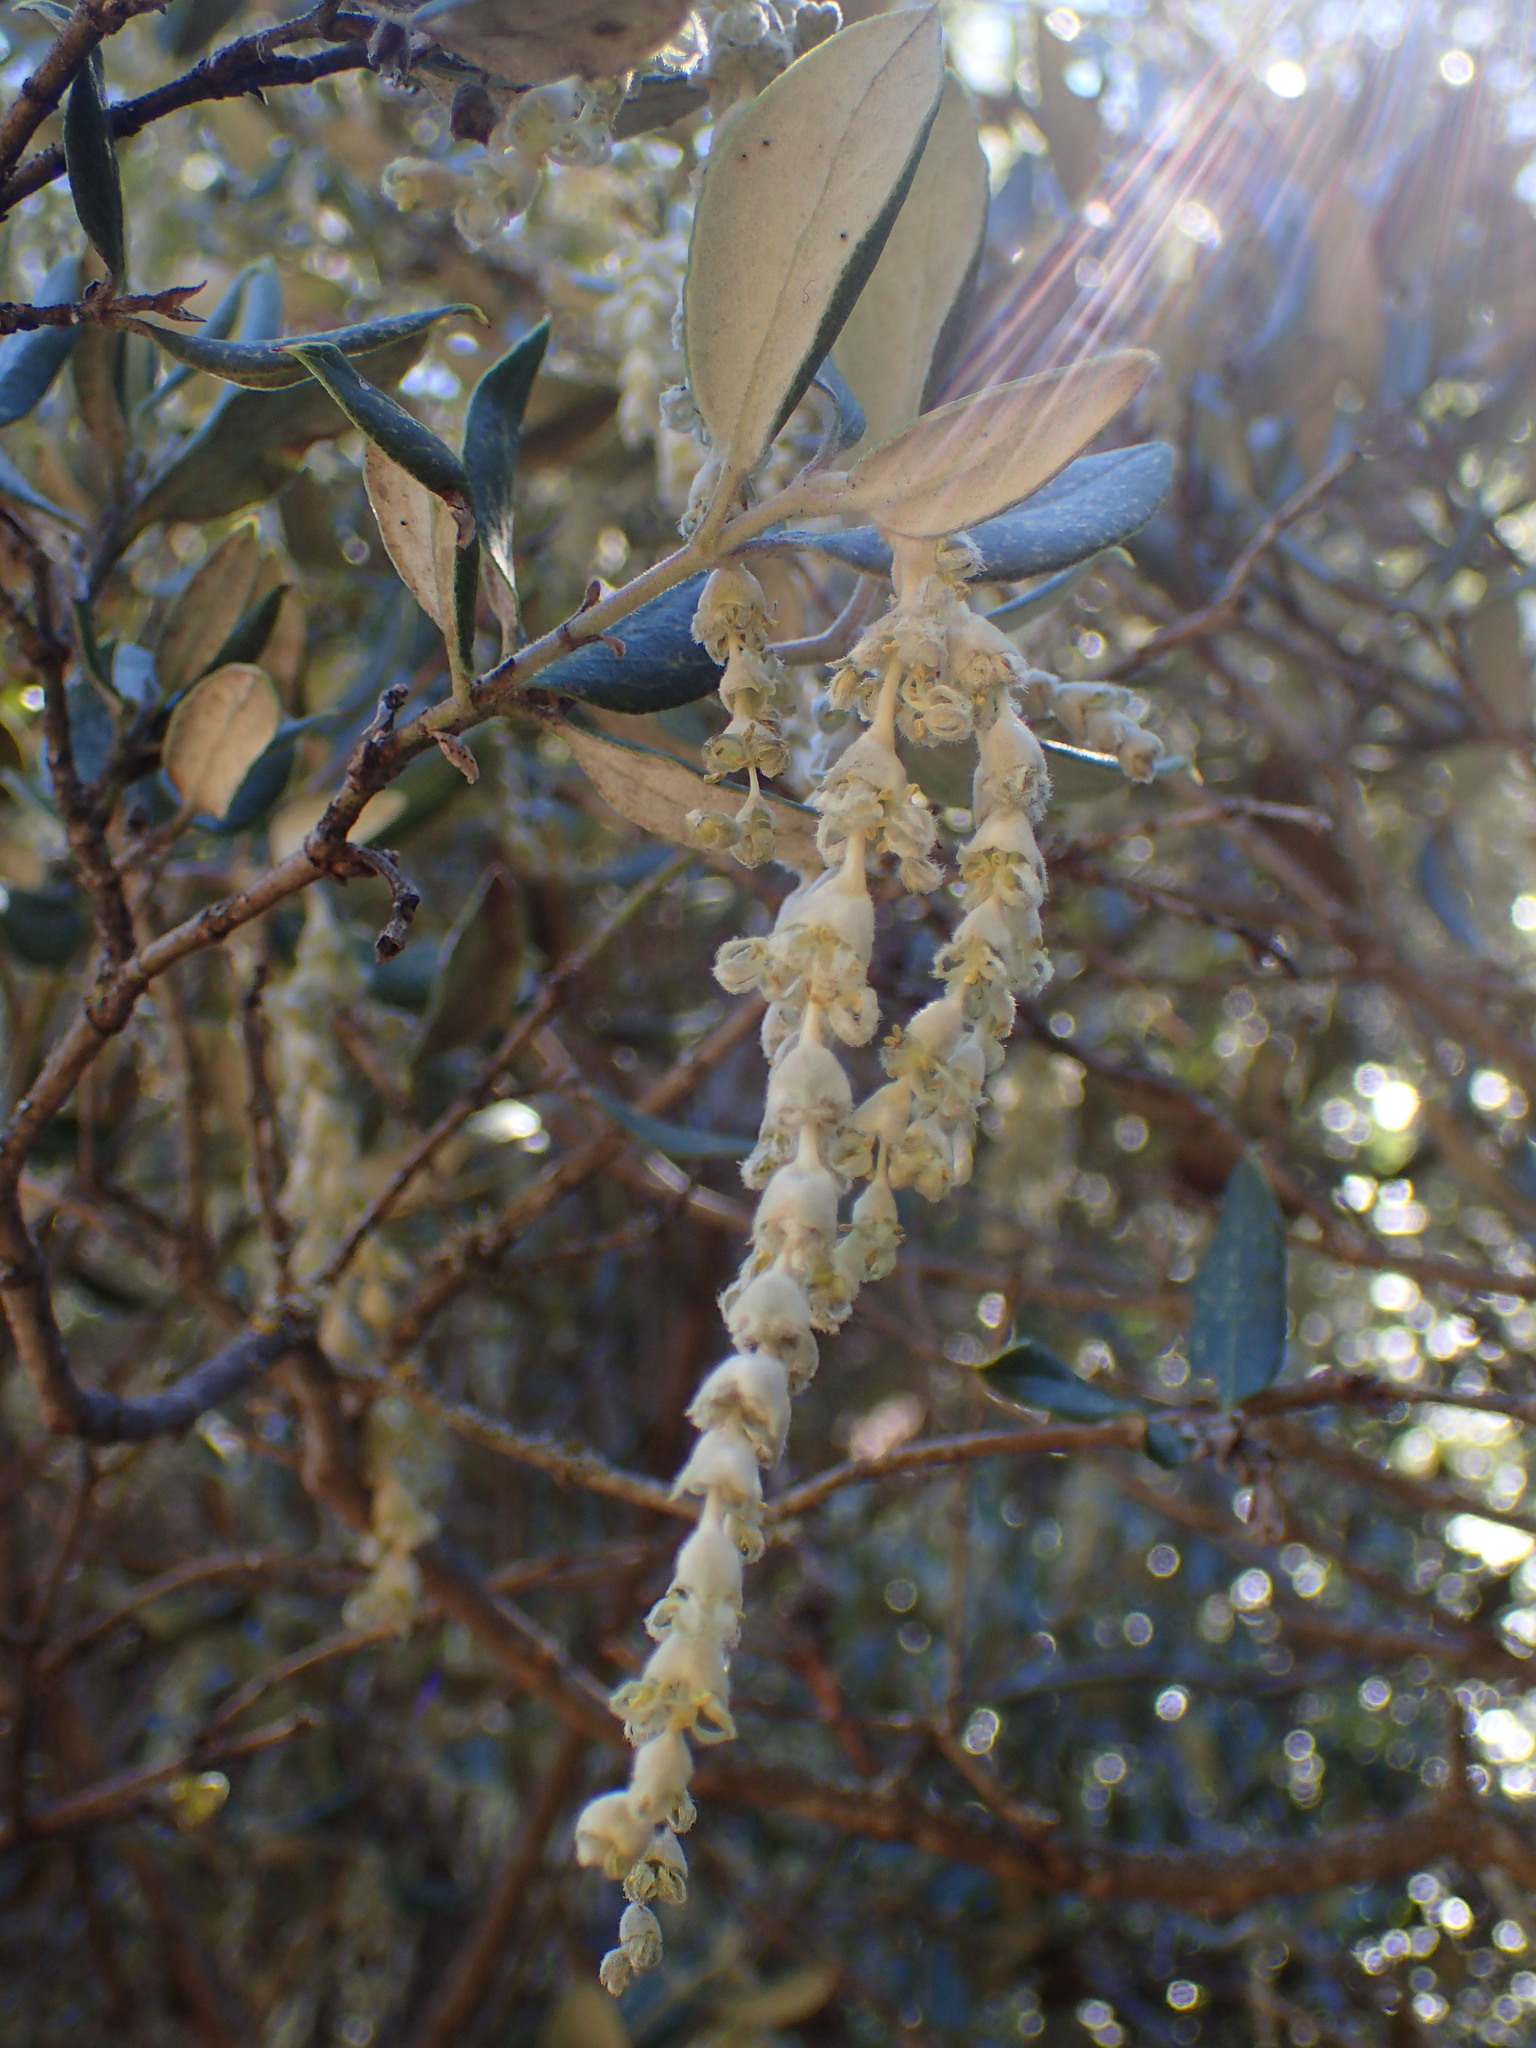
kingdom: Plantae
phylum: Tracheophyta
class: Magnoliopsida
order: Garryales
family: Garryaceae
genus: Garrya
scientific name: Garrya veatchii
